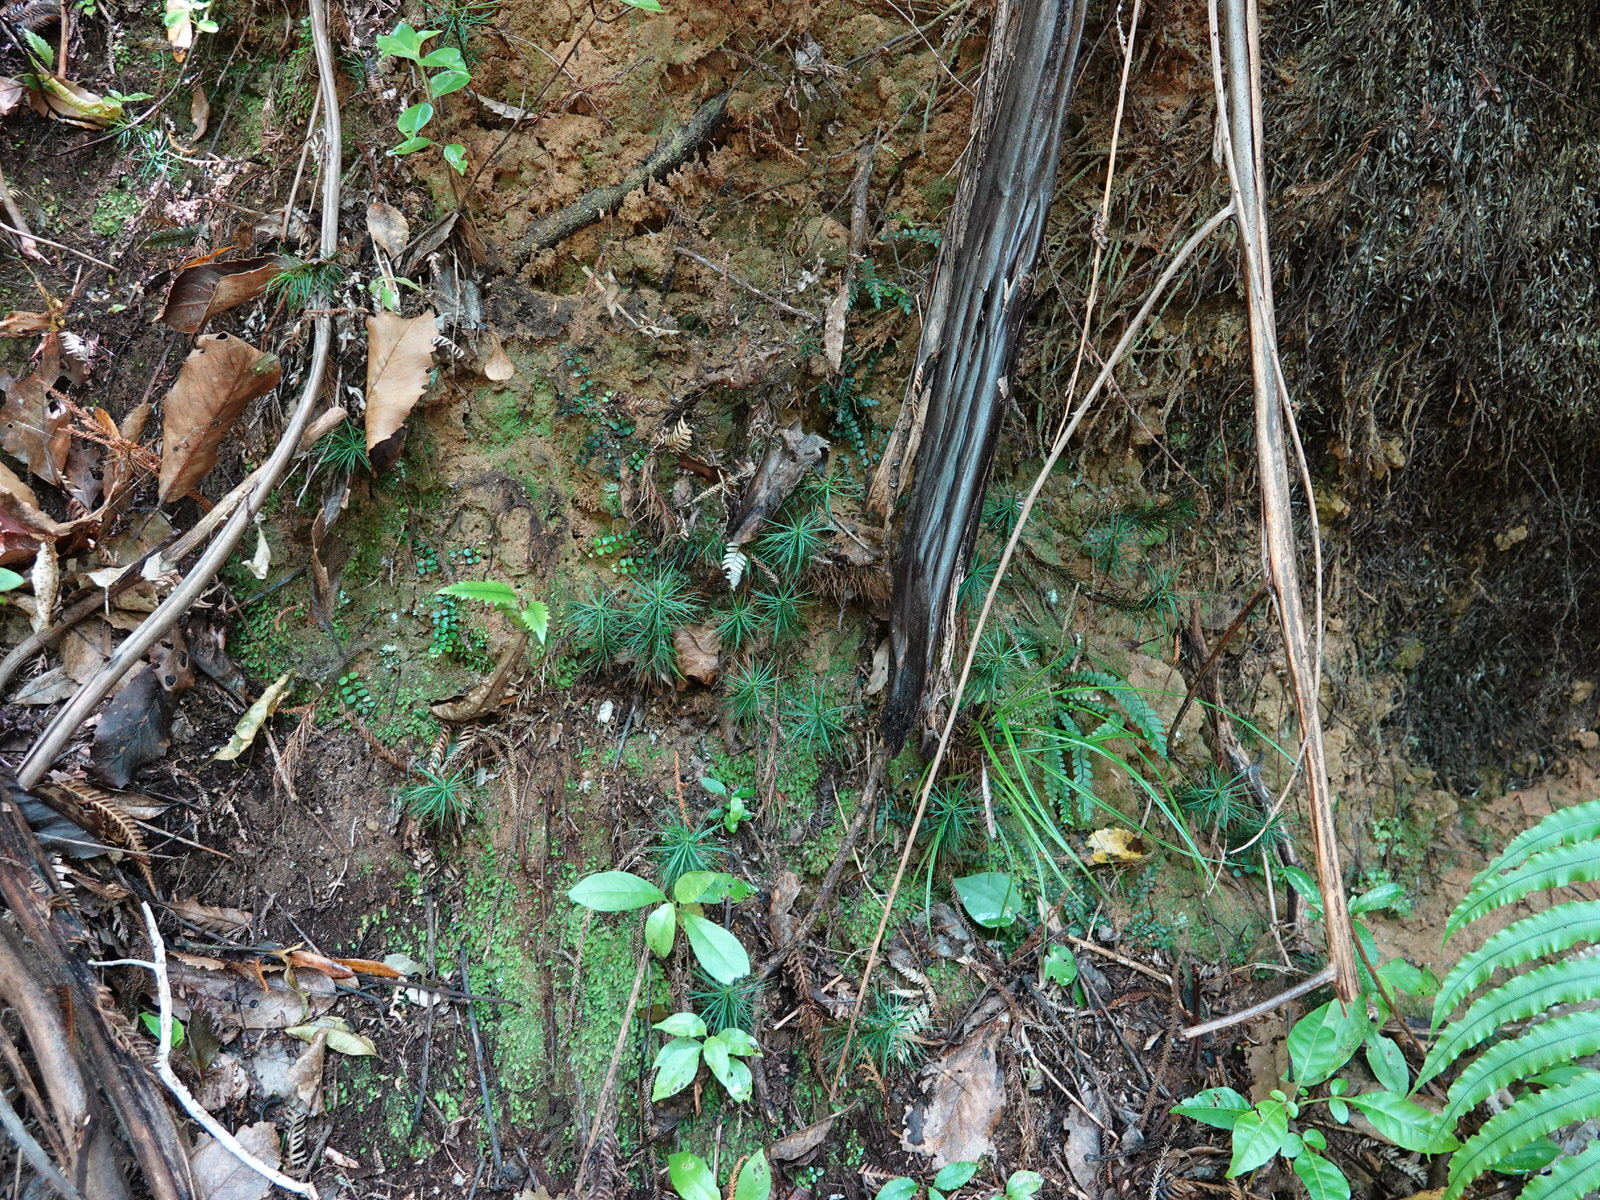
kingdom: Plantae
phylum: Bryophyta
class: Polytrichopsida
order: Polytrichales
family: Polytrichaceae
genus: Dawsonia
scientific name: Dawsonia superba
